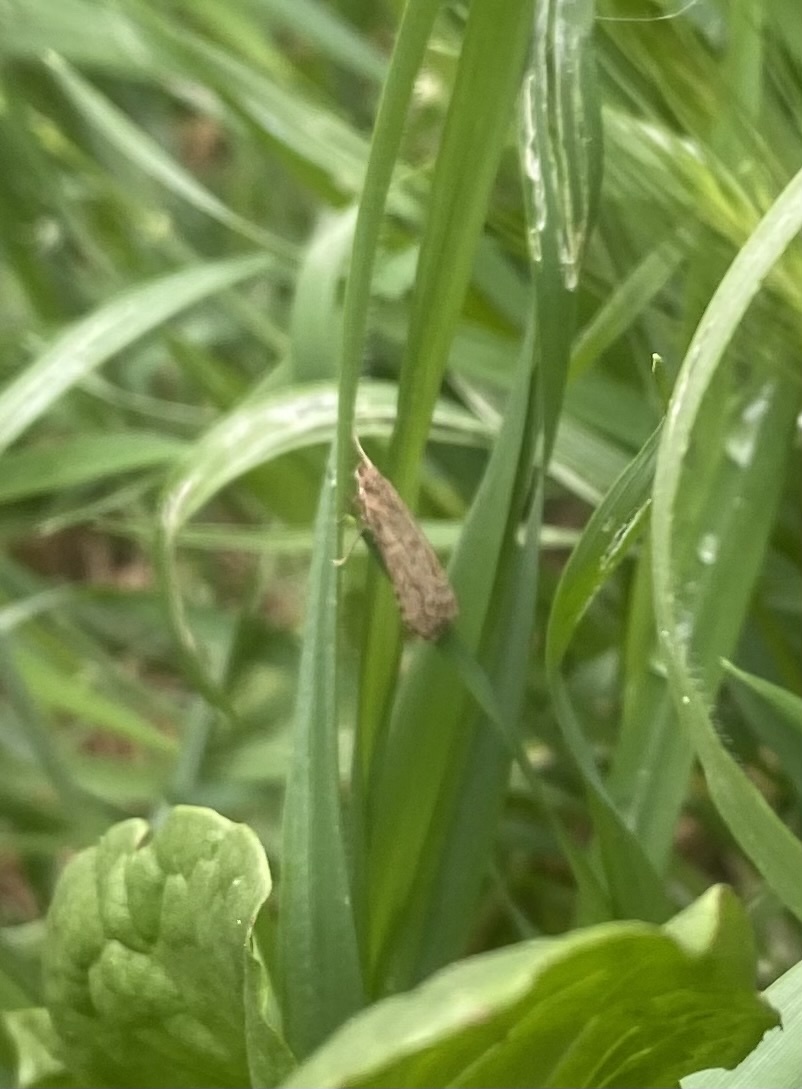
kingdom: Animalia
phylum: Arthropoda
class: Insecta
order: Lepidoptera
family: Crambidae
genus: Nomophila
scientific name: Nomophila noctuella
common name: Rush veneer
